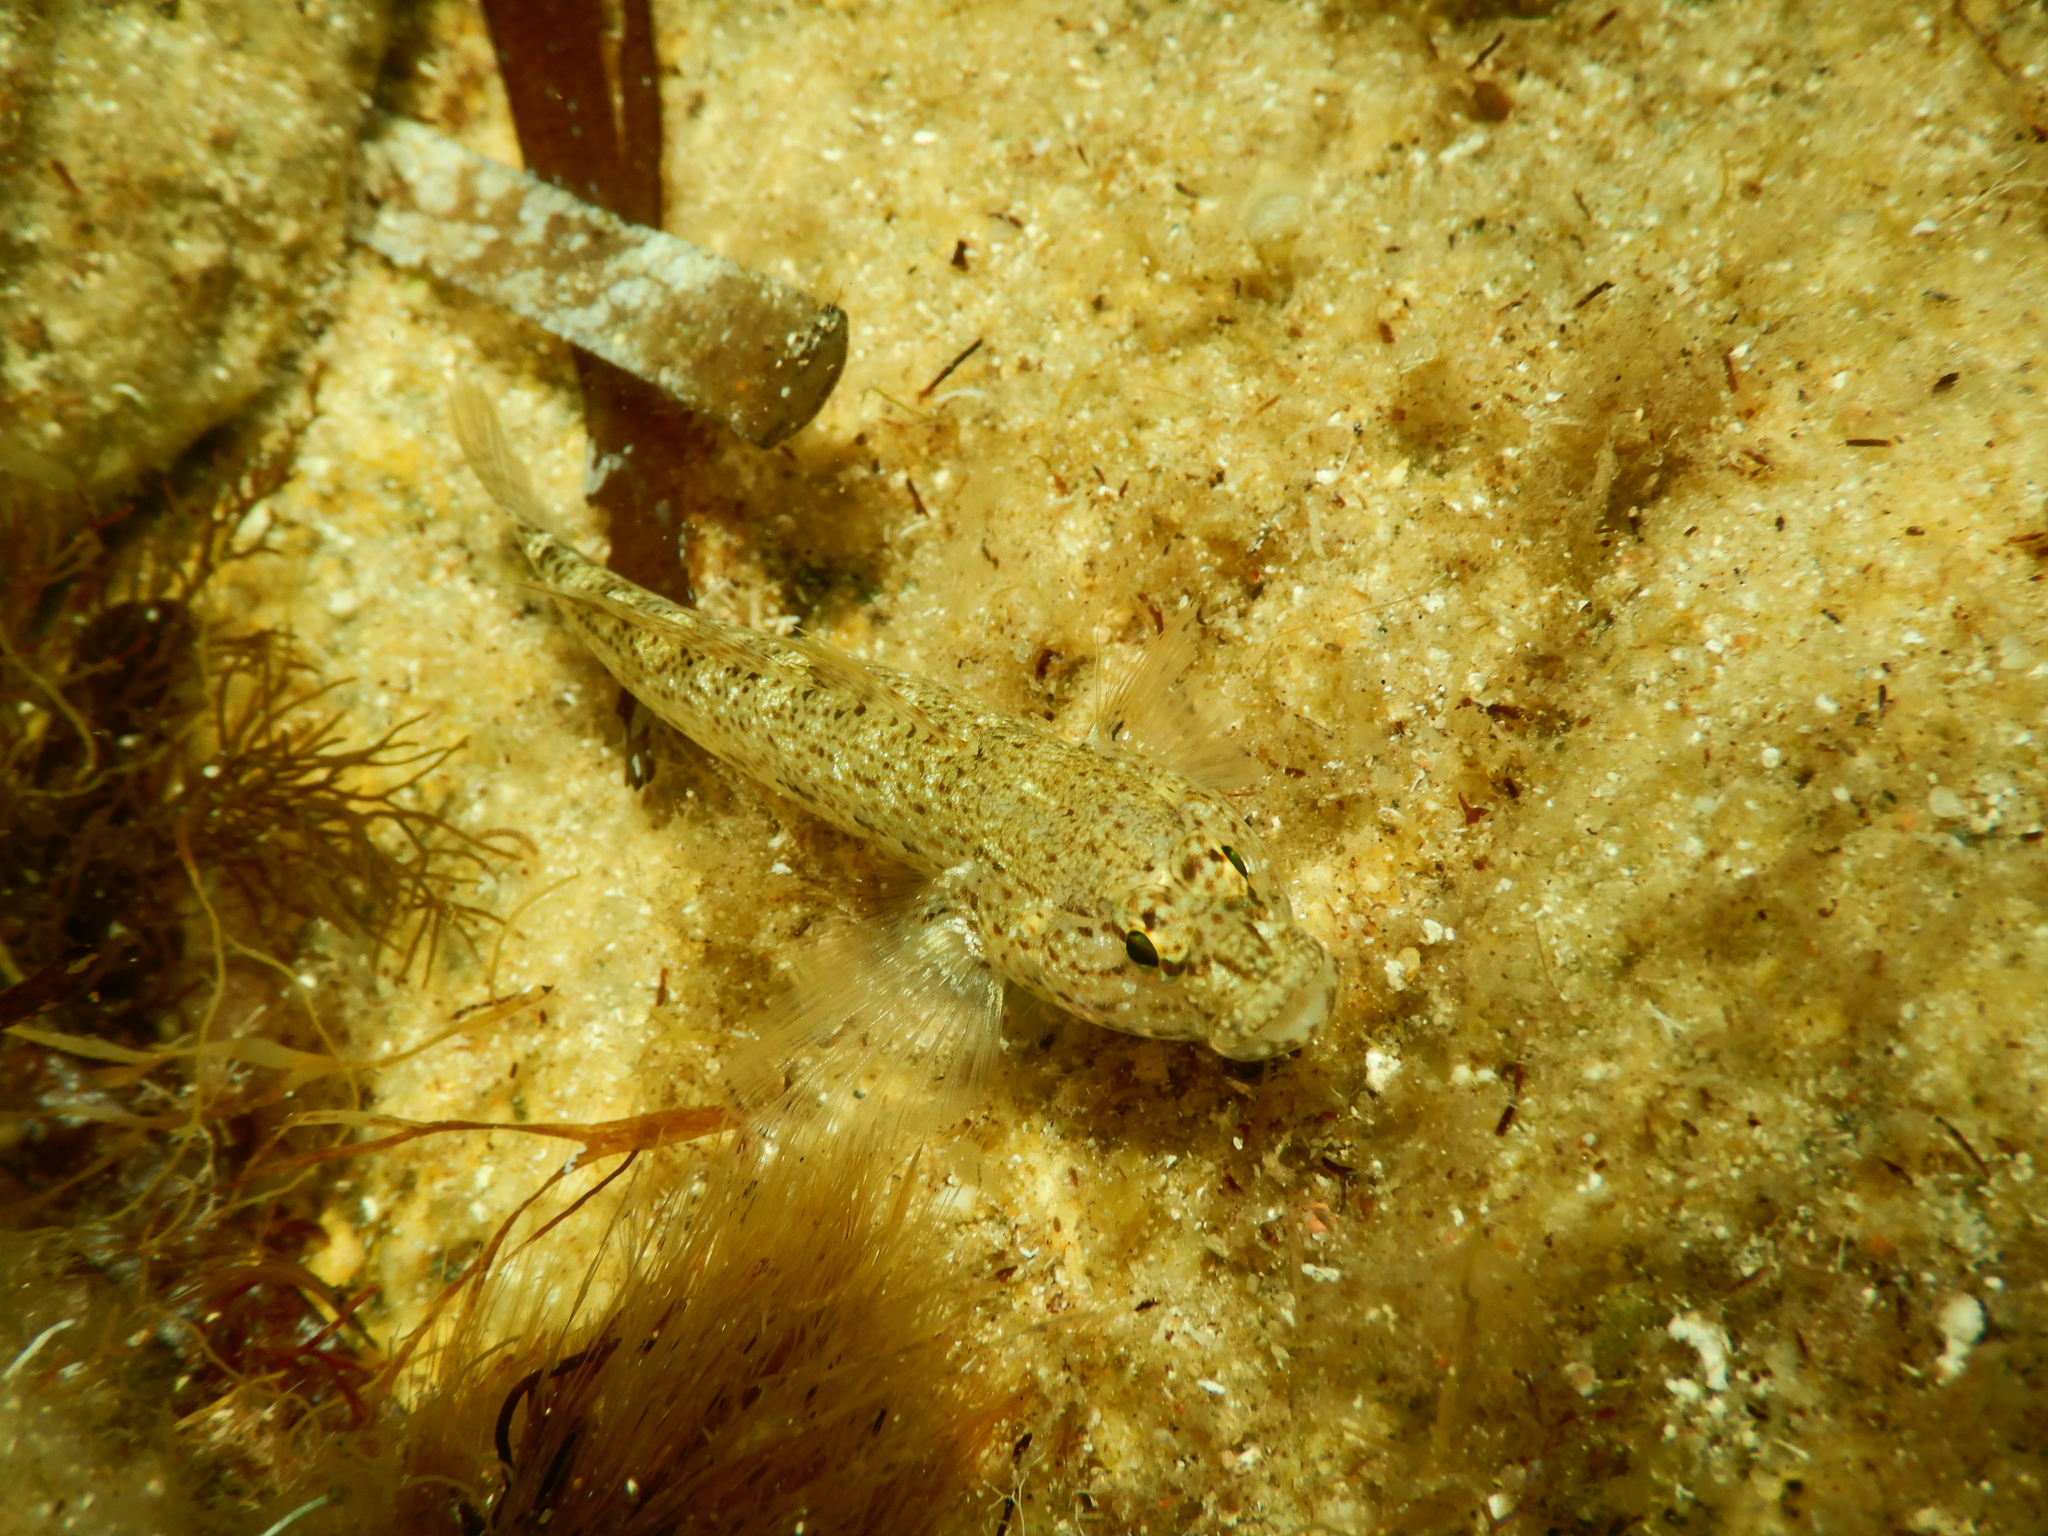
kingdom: Animalia
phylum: Chordata
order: Perciformes
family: Gobiidae
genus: Gobius
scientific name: Gobius incognitus
